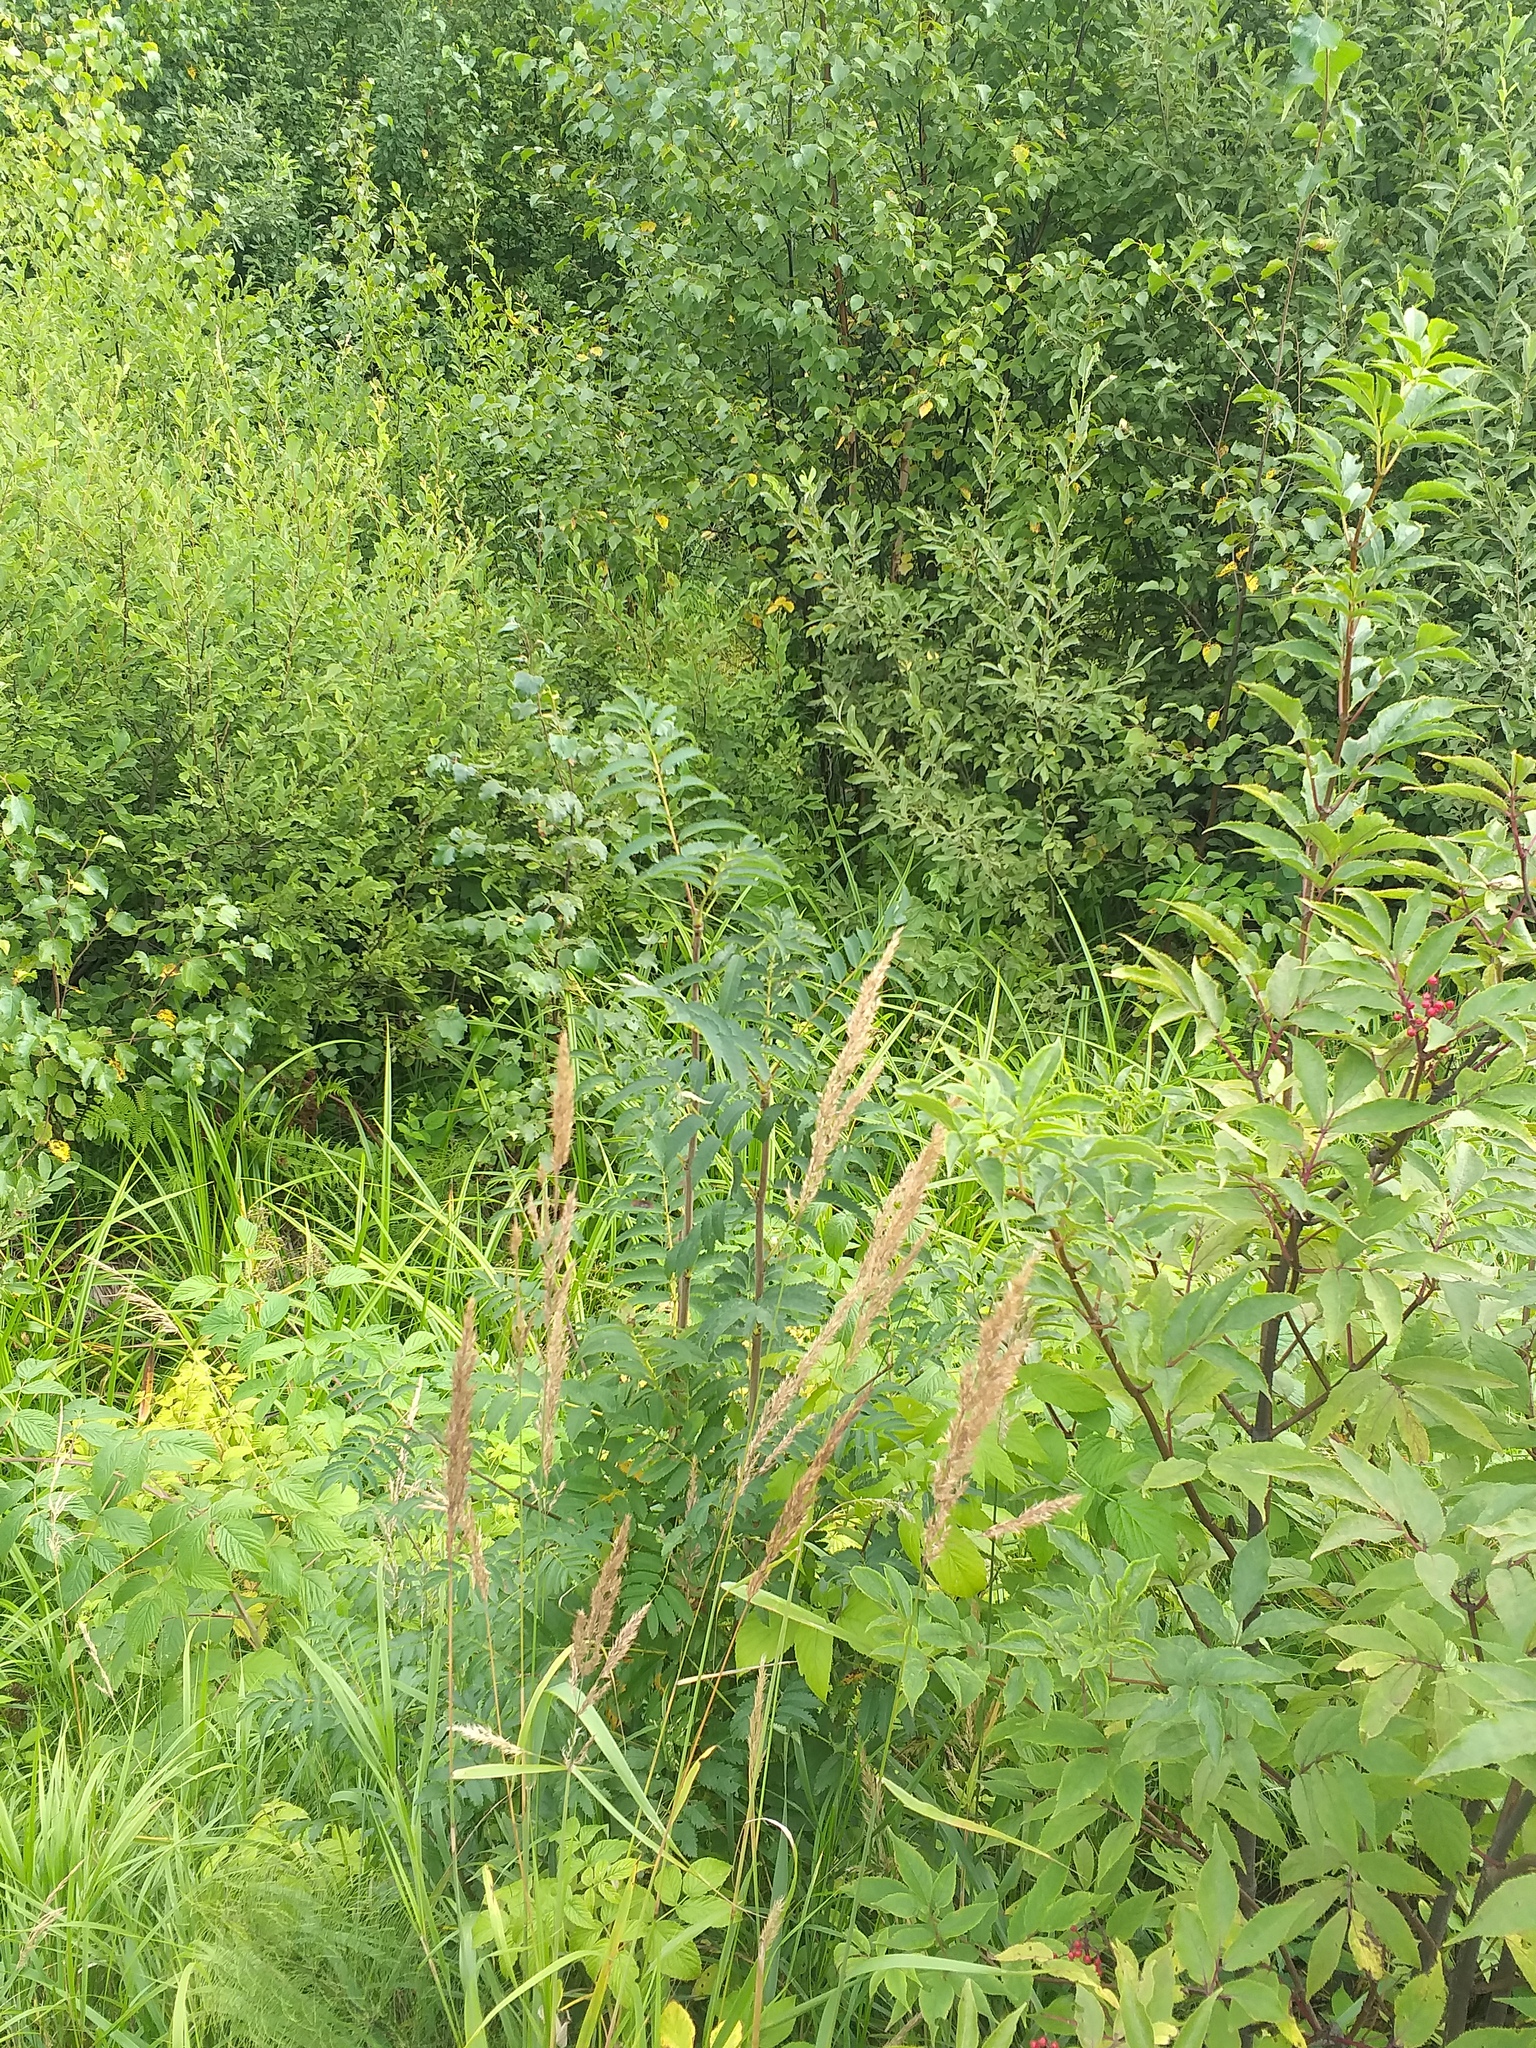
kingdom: Plantae
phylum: Tracheophyta
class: Liliopsida
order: Poales
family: Poaceae
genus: Calamagrostis
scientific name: Calamagrostis epigejos
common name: Wood small-reed
